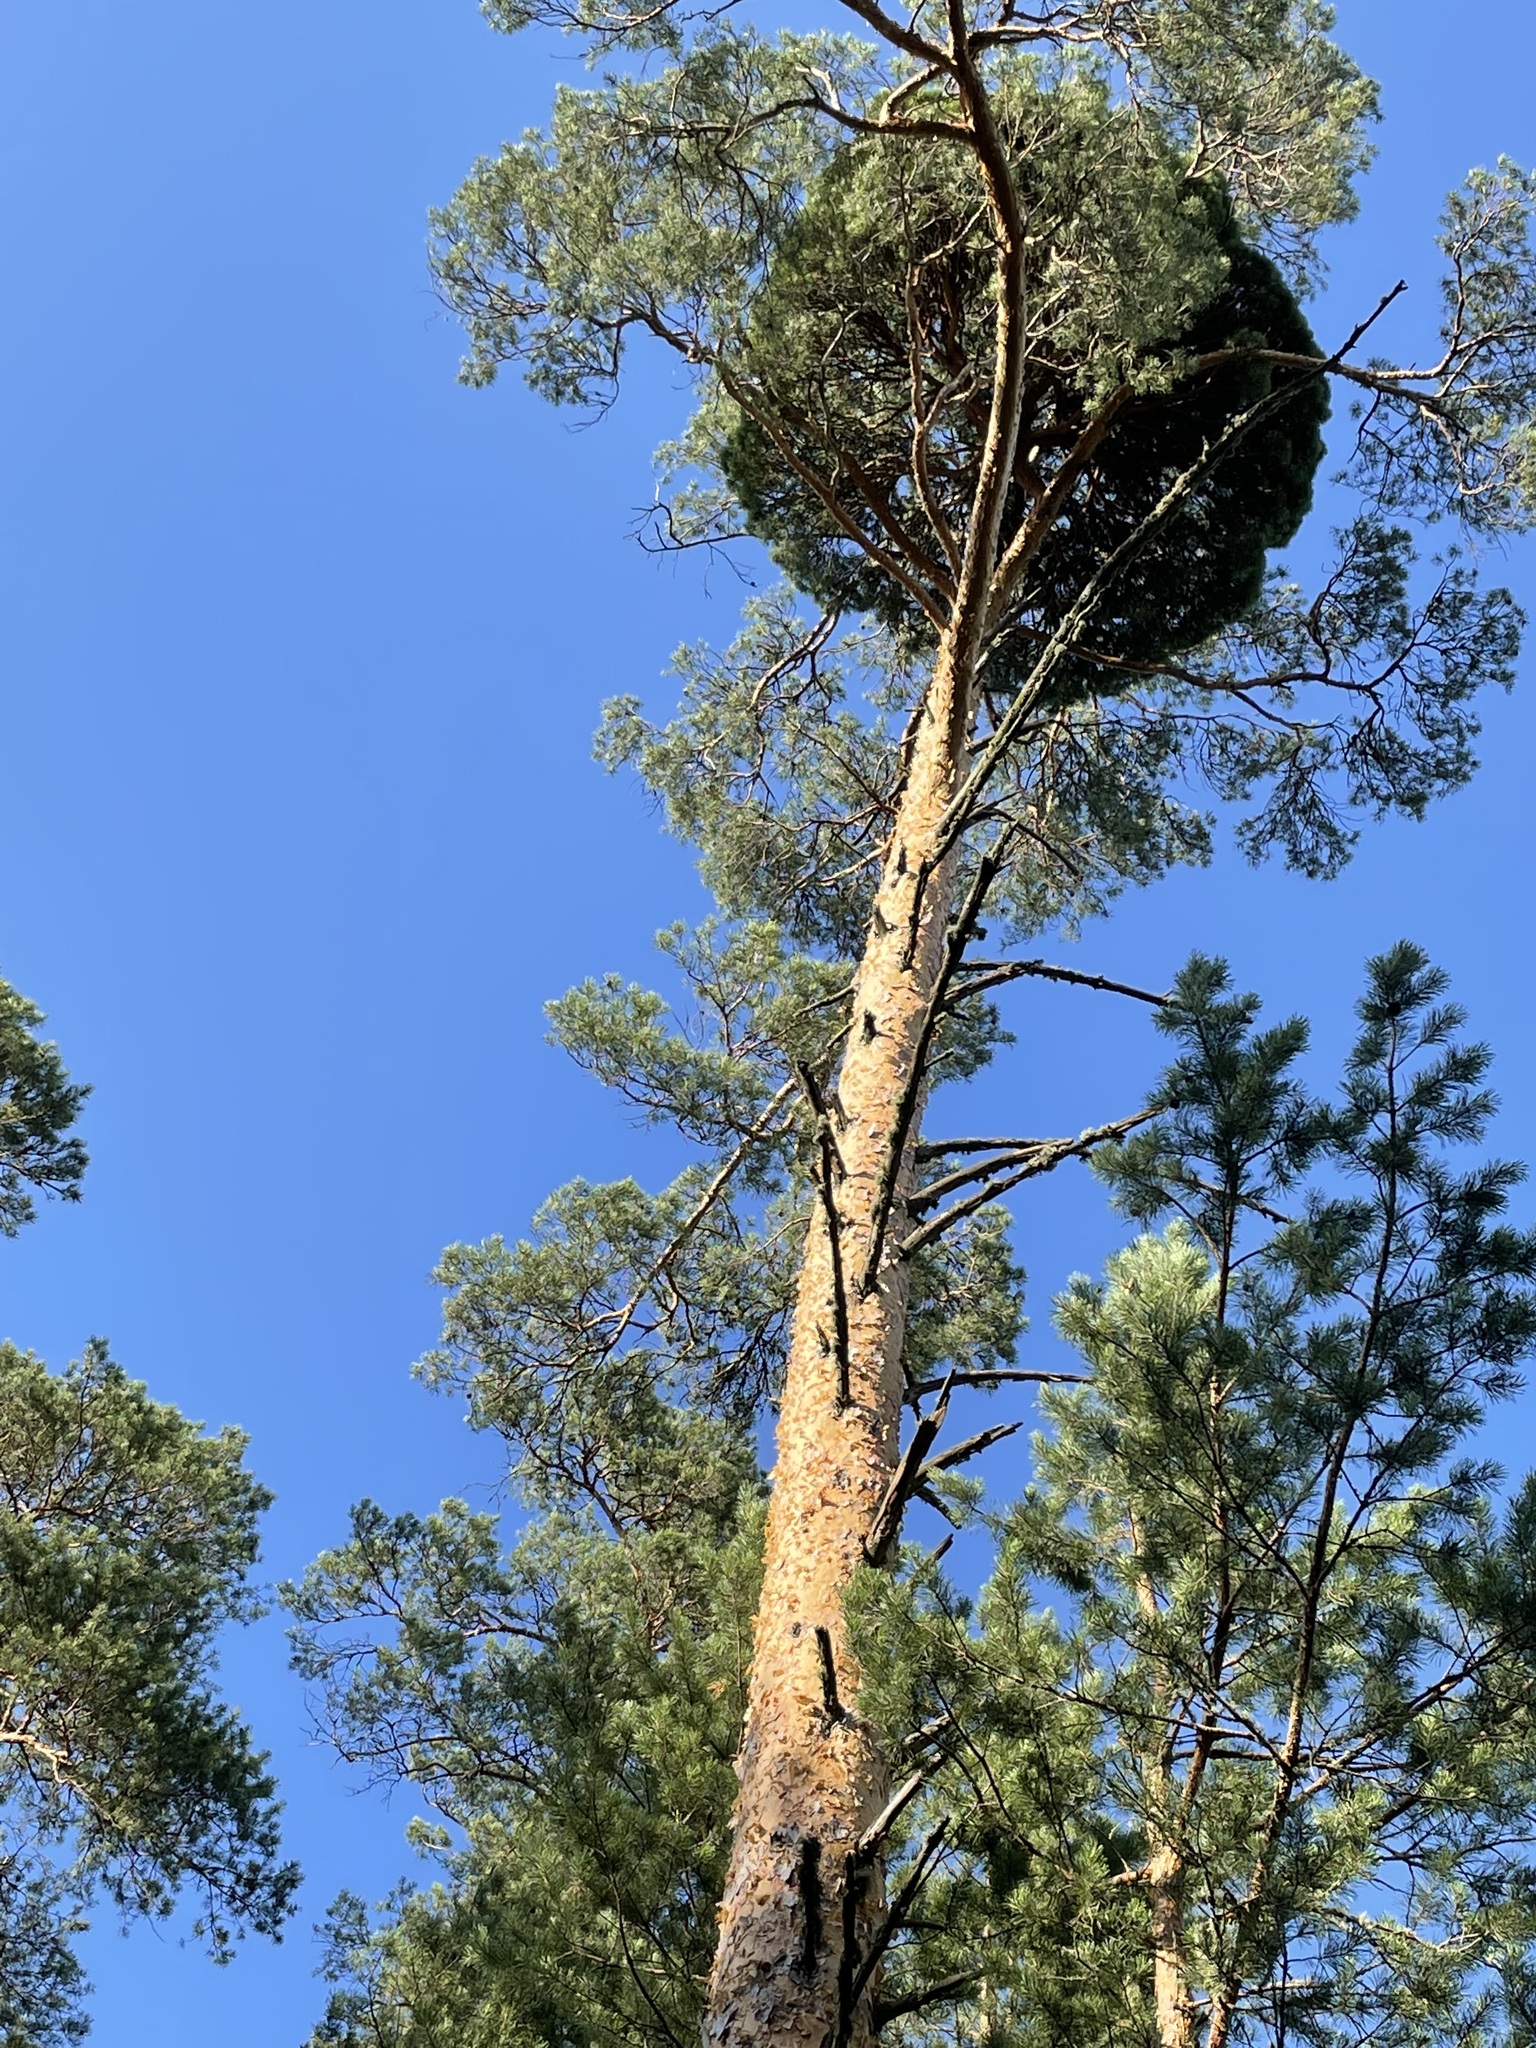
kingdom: Plantae
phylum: Tracheophyta
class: Pinopsida
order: Pinales
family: Pinaceae
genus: Pinus
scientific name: Pinus sylvestris
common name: Scots pine
